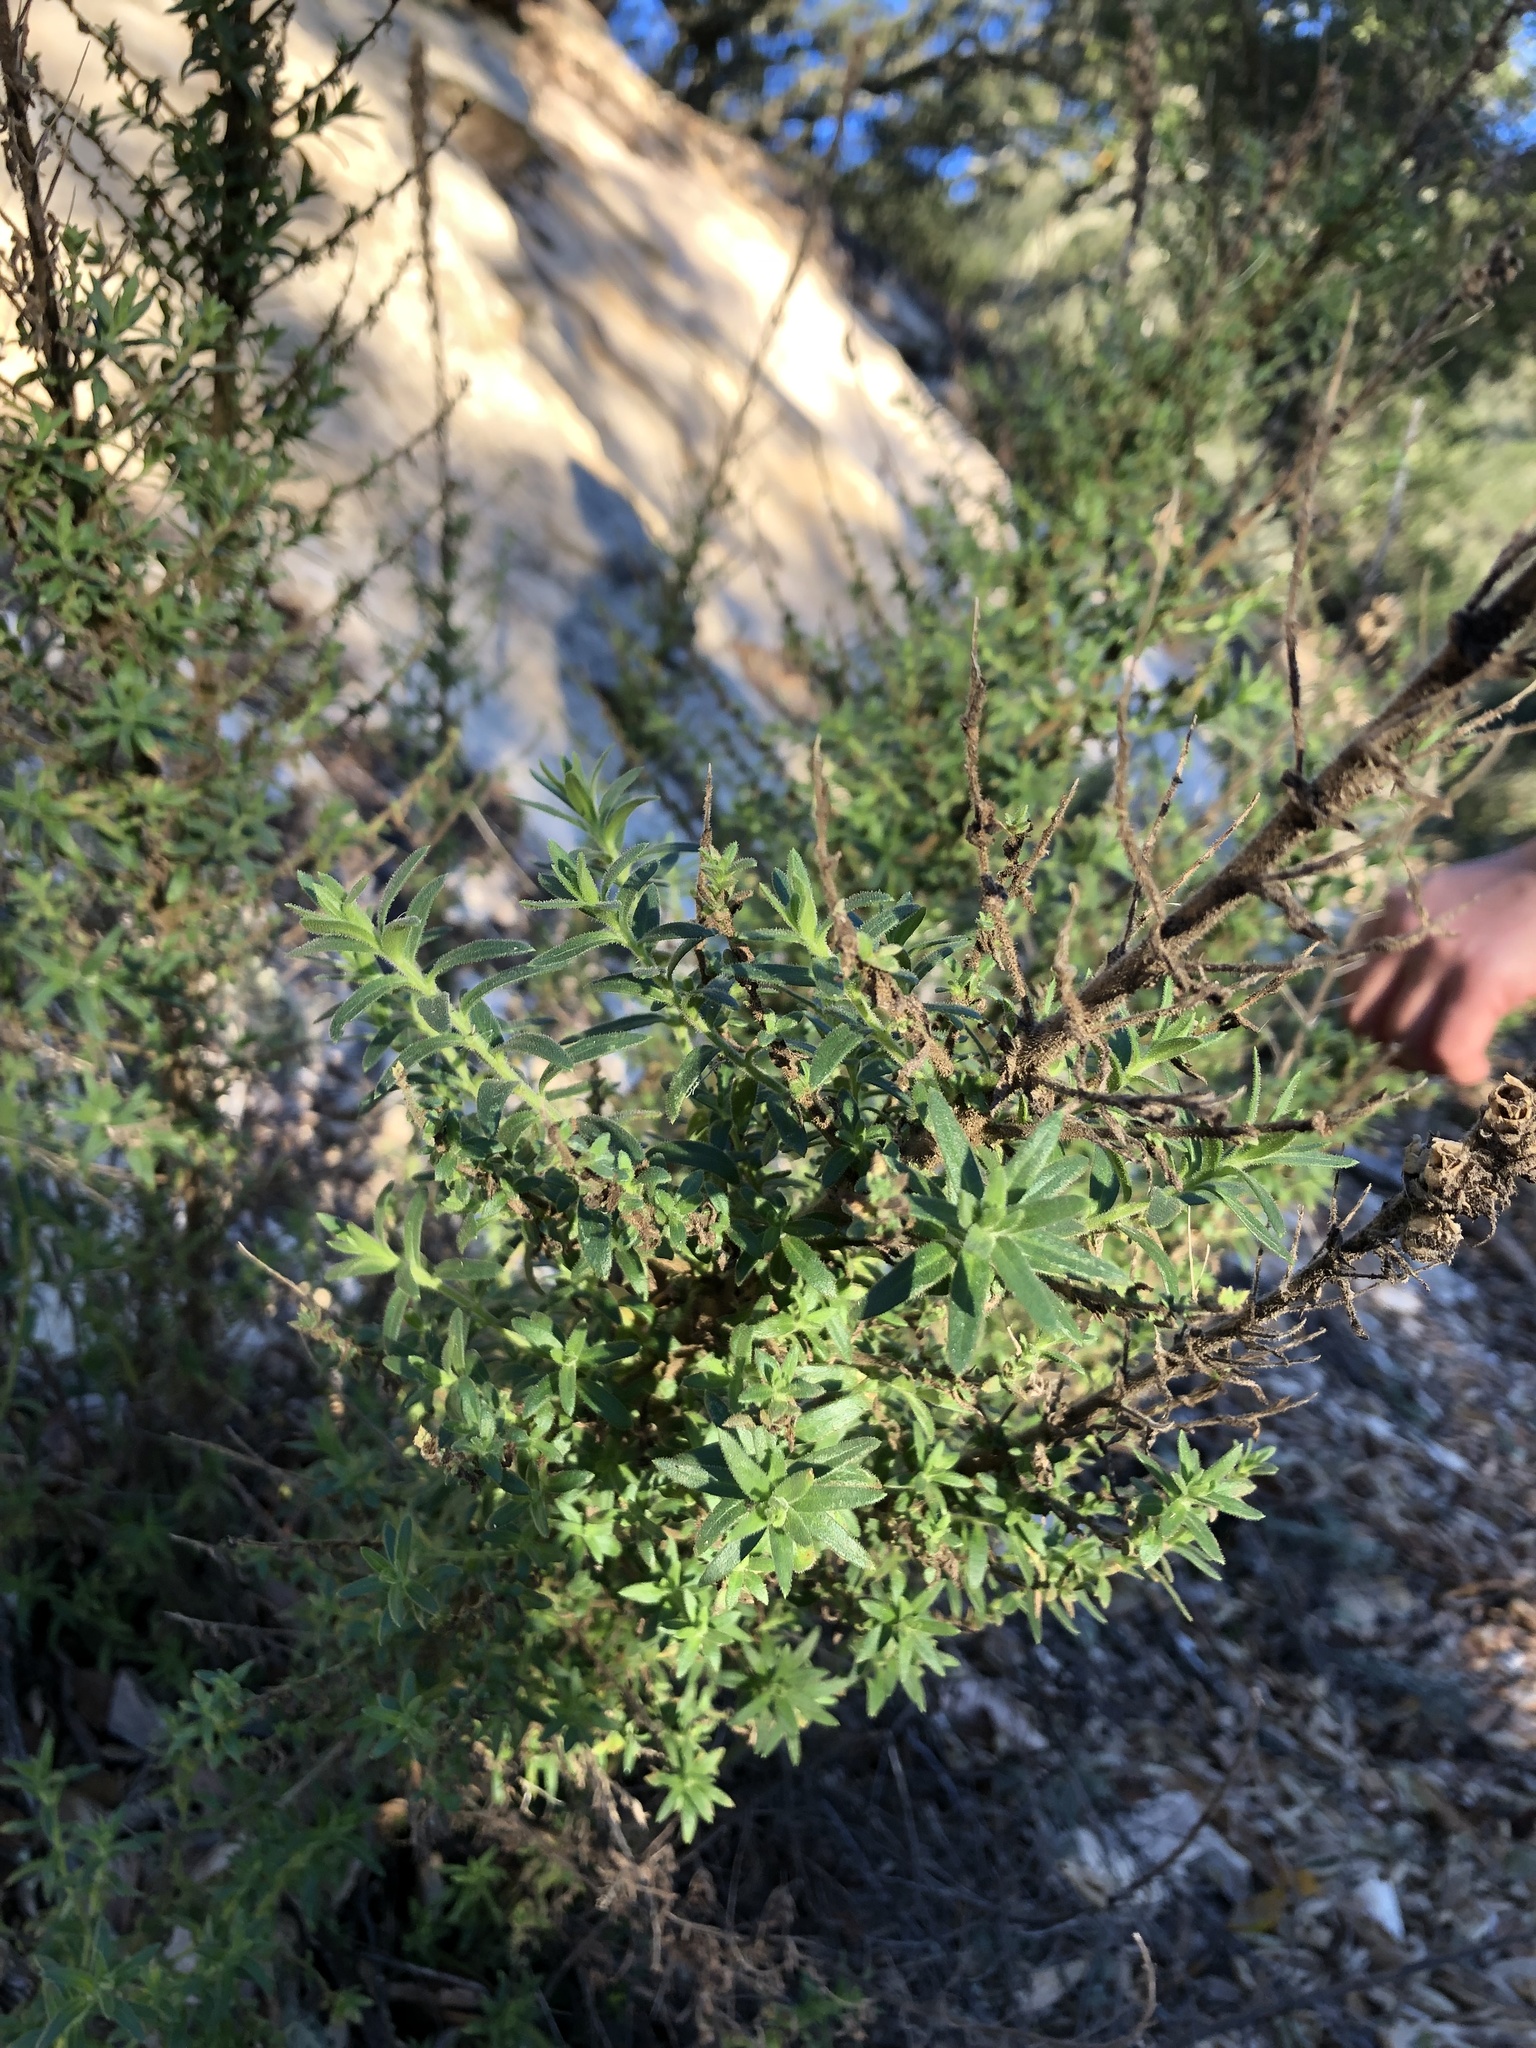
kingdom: Plantae
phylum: Tracheophyta
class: Magnoliopsida
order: Lamiales
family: Plantaginaceae
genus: Sairocarpus
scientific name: Sairocarpus multiflorus
